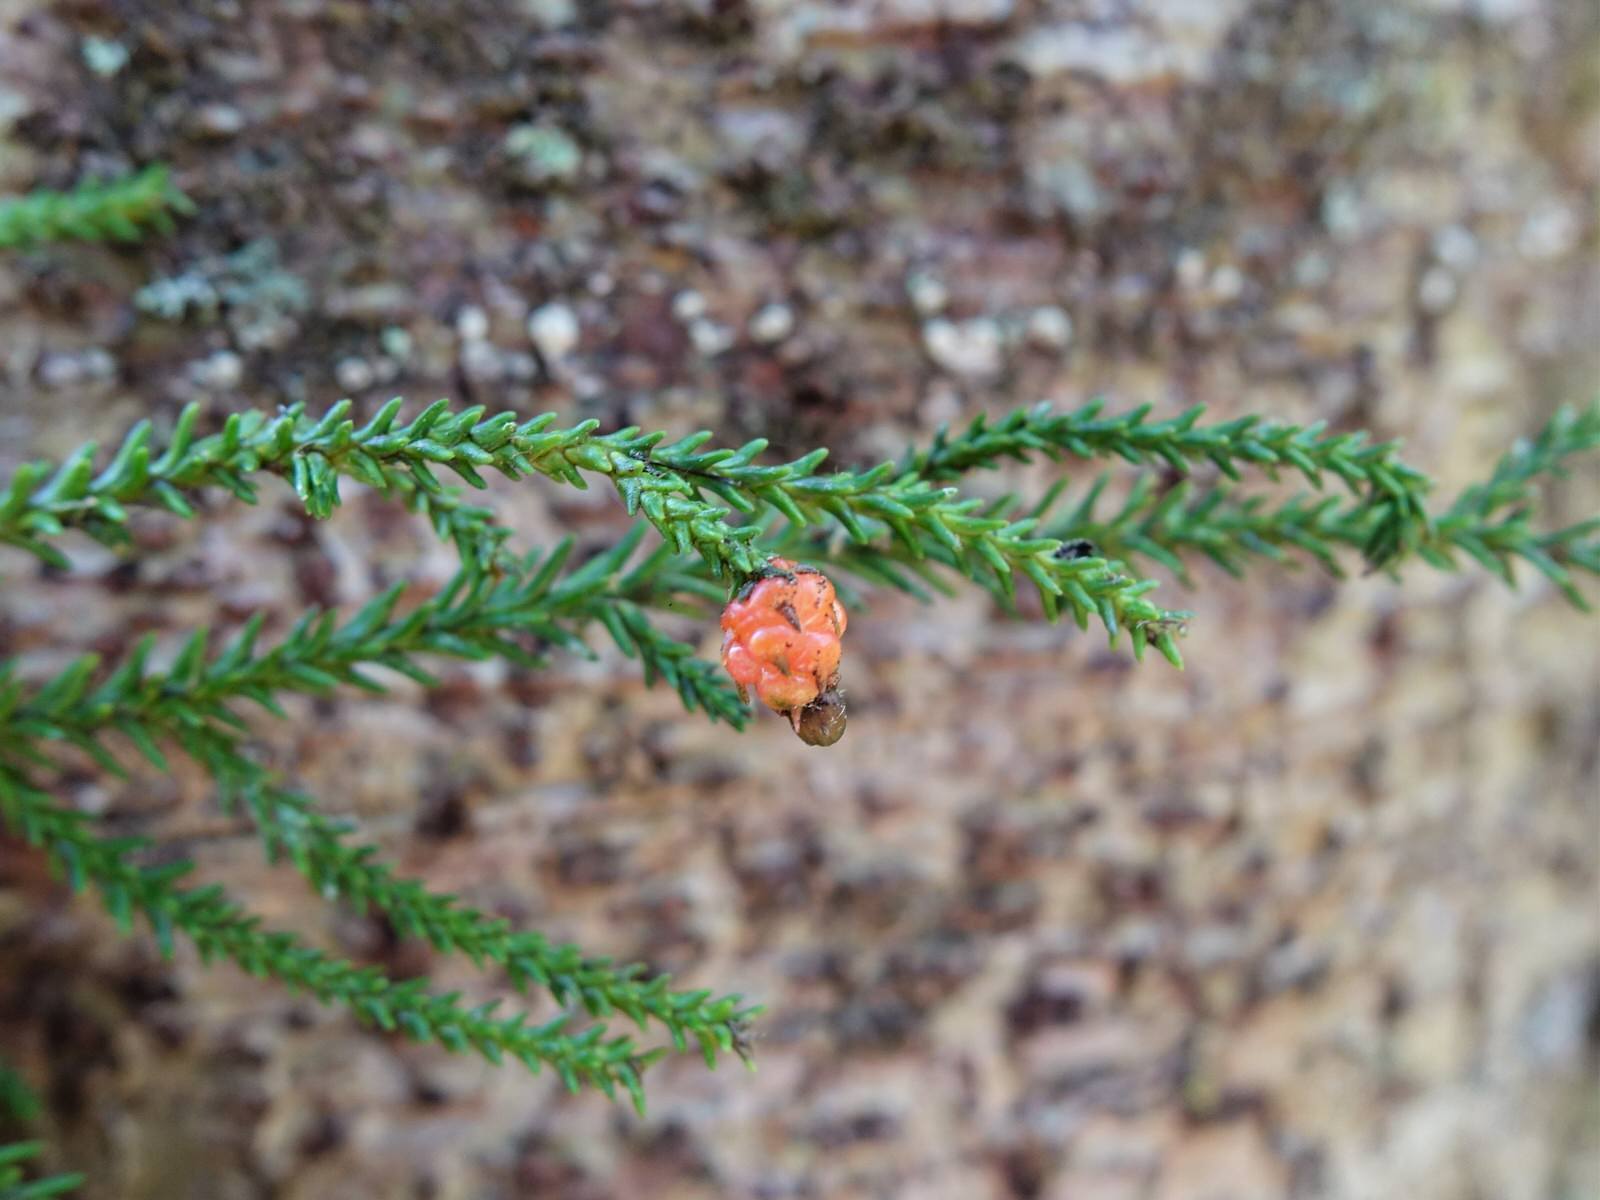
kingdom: Plantae
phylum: Tracheophyta
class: Pinopsida
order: Pinales
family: Podocarpaceae
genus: Dacrydium
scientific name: Dacrydium cupressinum
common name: Red pine
